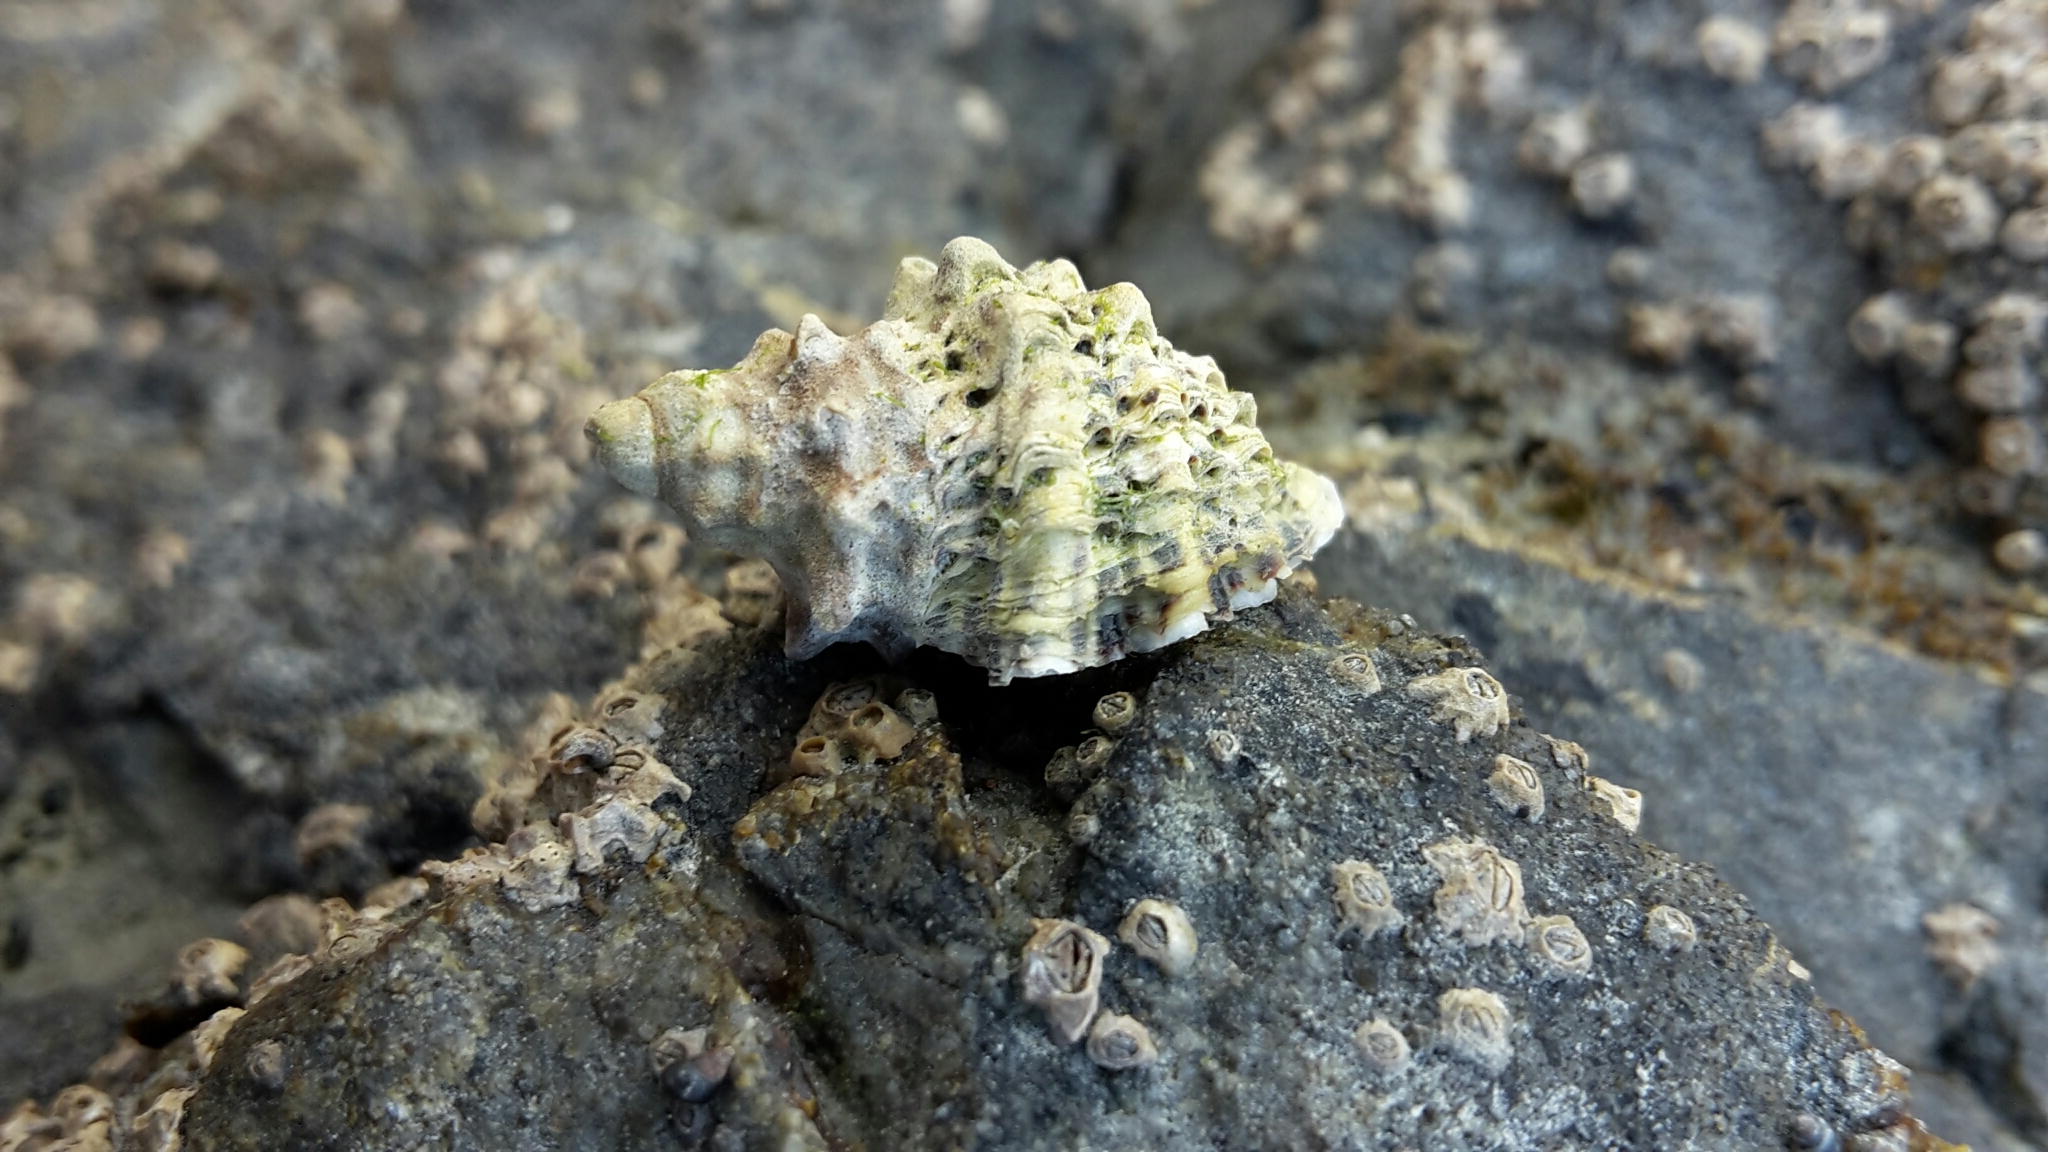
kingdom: Animalia
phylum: Mollusca
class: Gastropoda
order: Neogastropoda
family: Muricidae
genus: Haustrum
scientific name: Haustrum scobina
